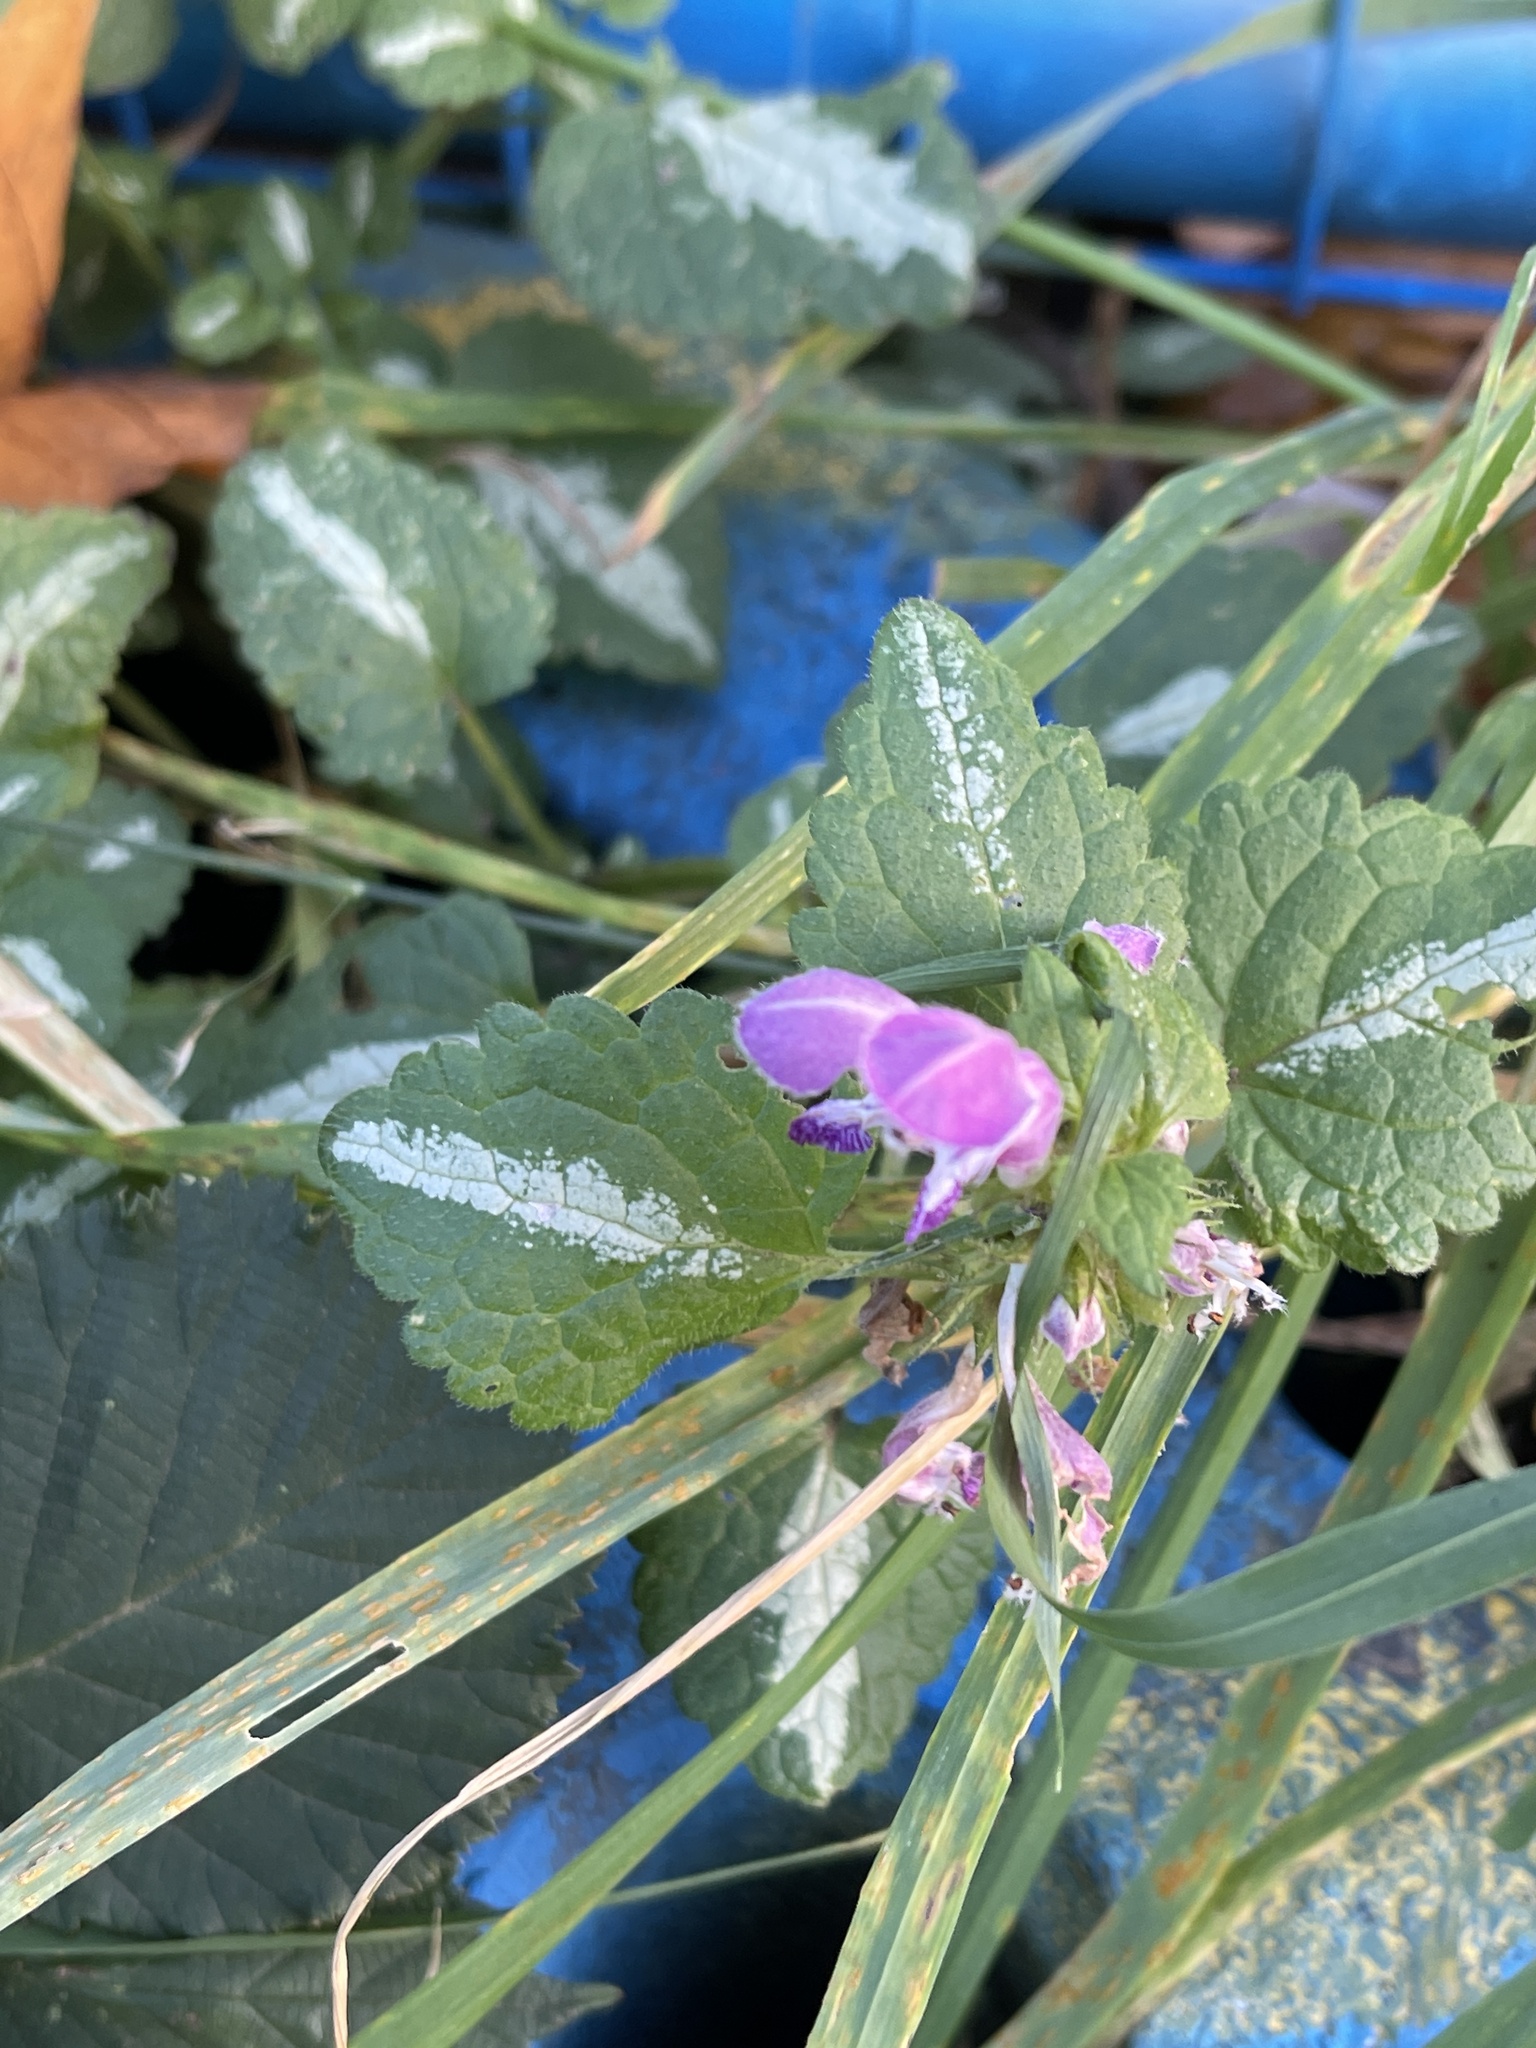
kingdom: Plantae
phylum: Tracheophyta
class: Magnoliopsida
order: Lamiales
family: Lamiaceae
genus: Lamium
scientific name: Lamium maculatum
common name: Spotted dead-nettle
